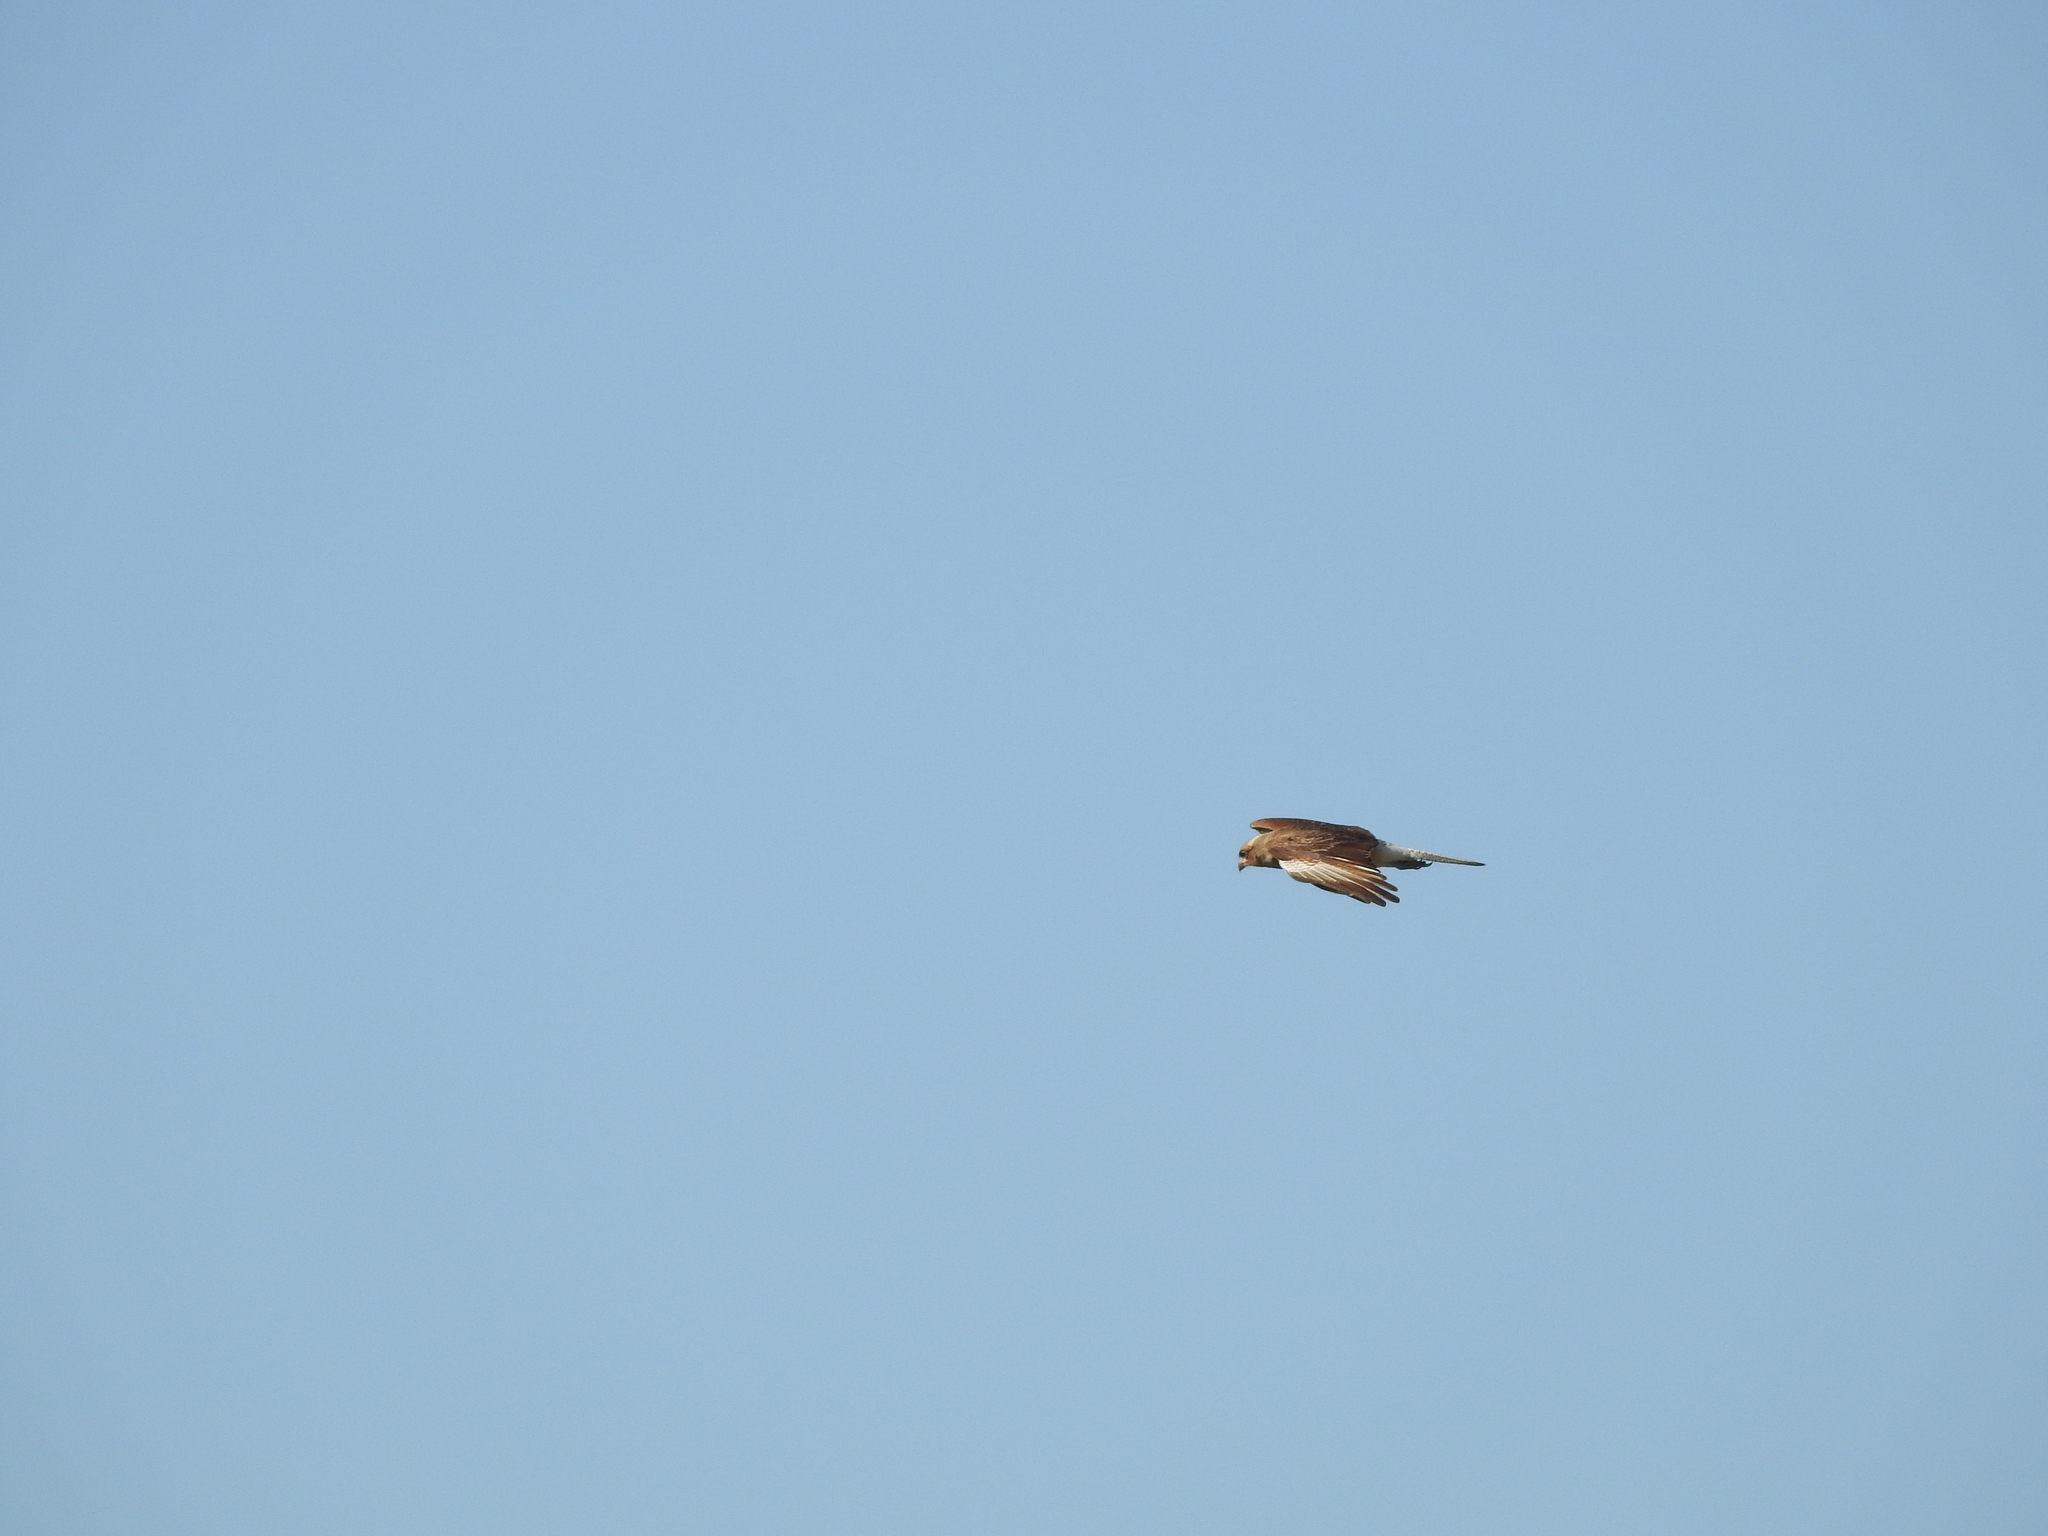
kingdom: Animalia
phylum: Chordata
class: Aves
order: Falconiformes
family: Falconidae
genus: Daptrius
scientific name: Daptrius
